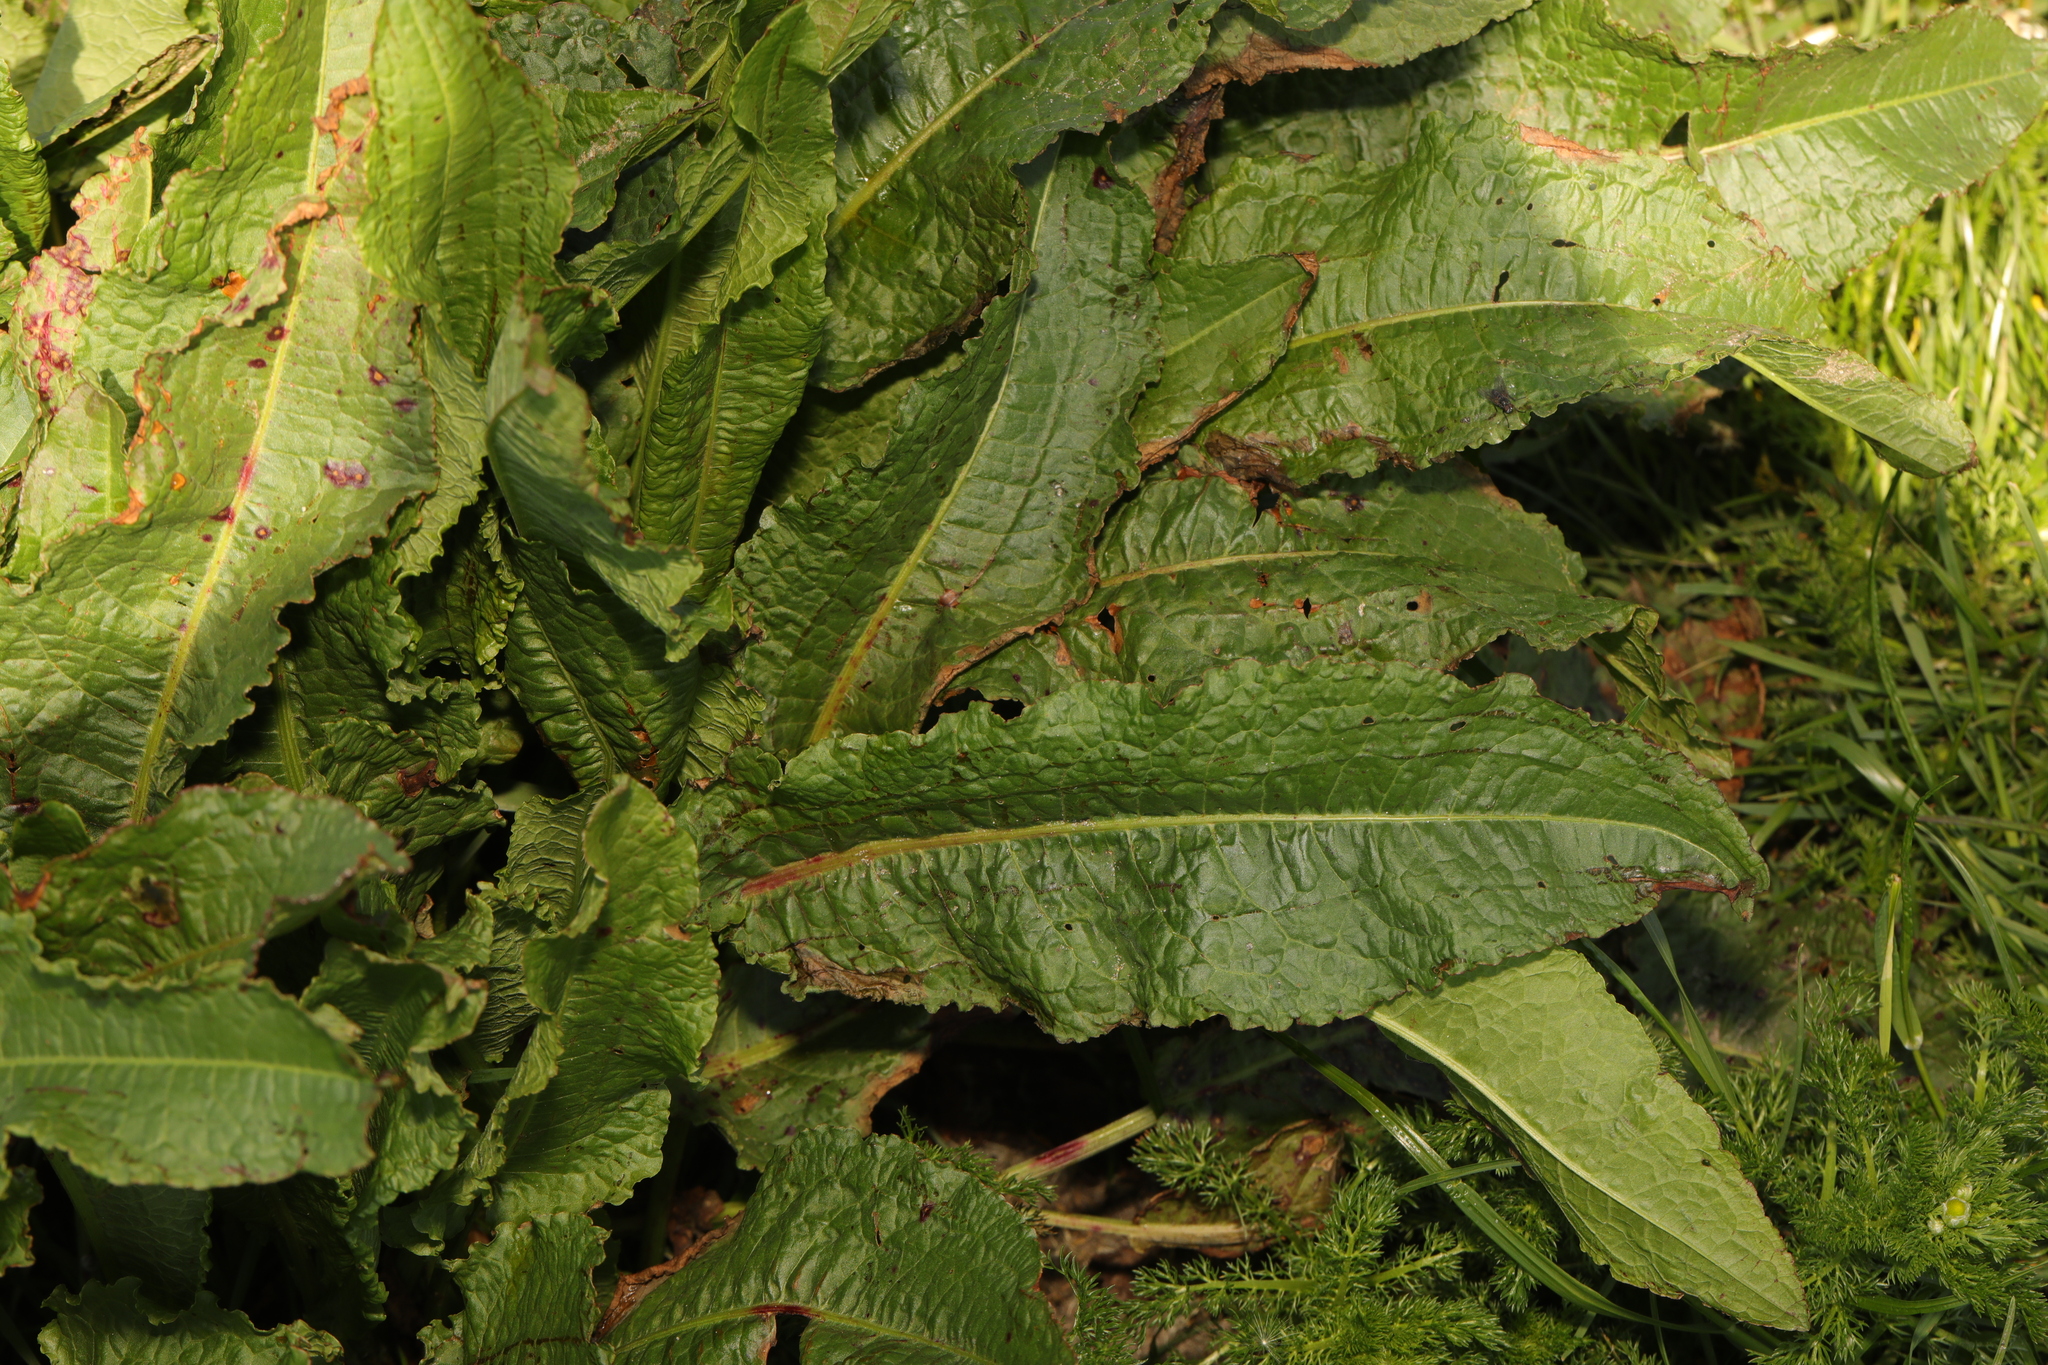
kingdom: Plantae
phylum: Tracheophyta
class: Magnoliopsida
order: Caryophyllales
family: Polygonaceae
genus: Rumex
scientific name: Rumex obtusifolius
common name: Bitter dock
